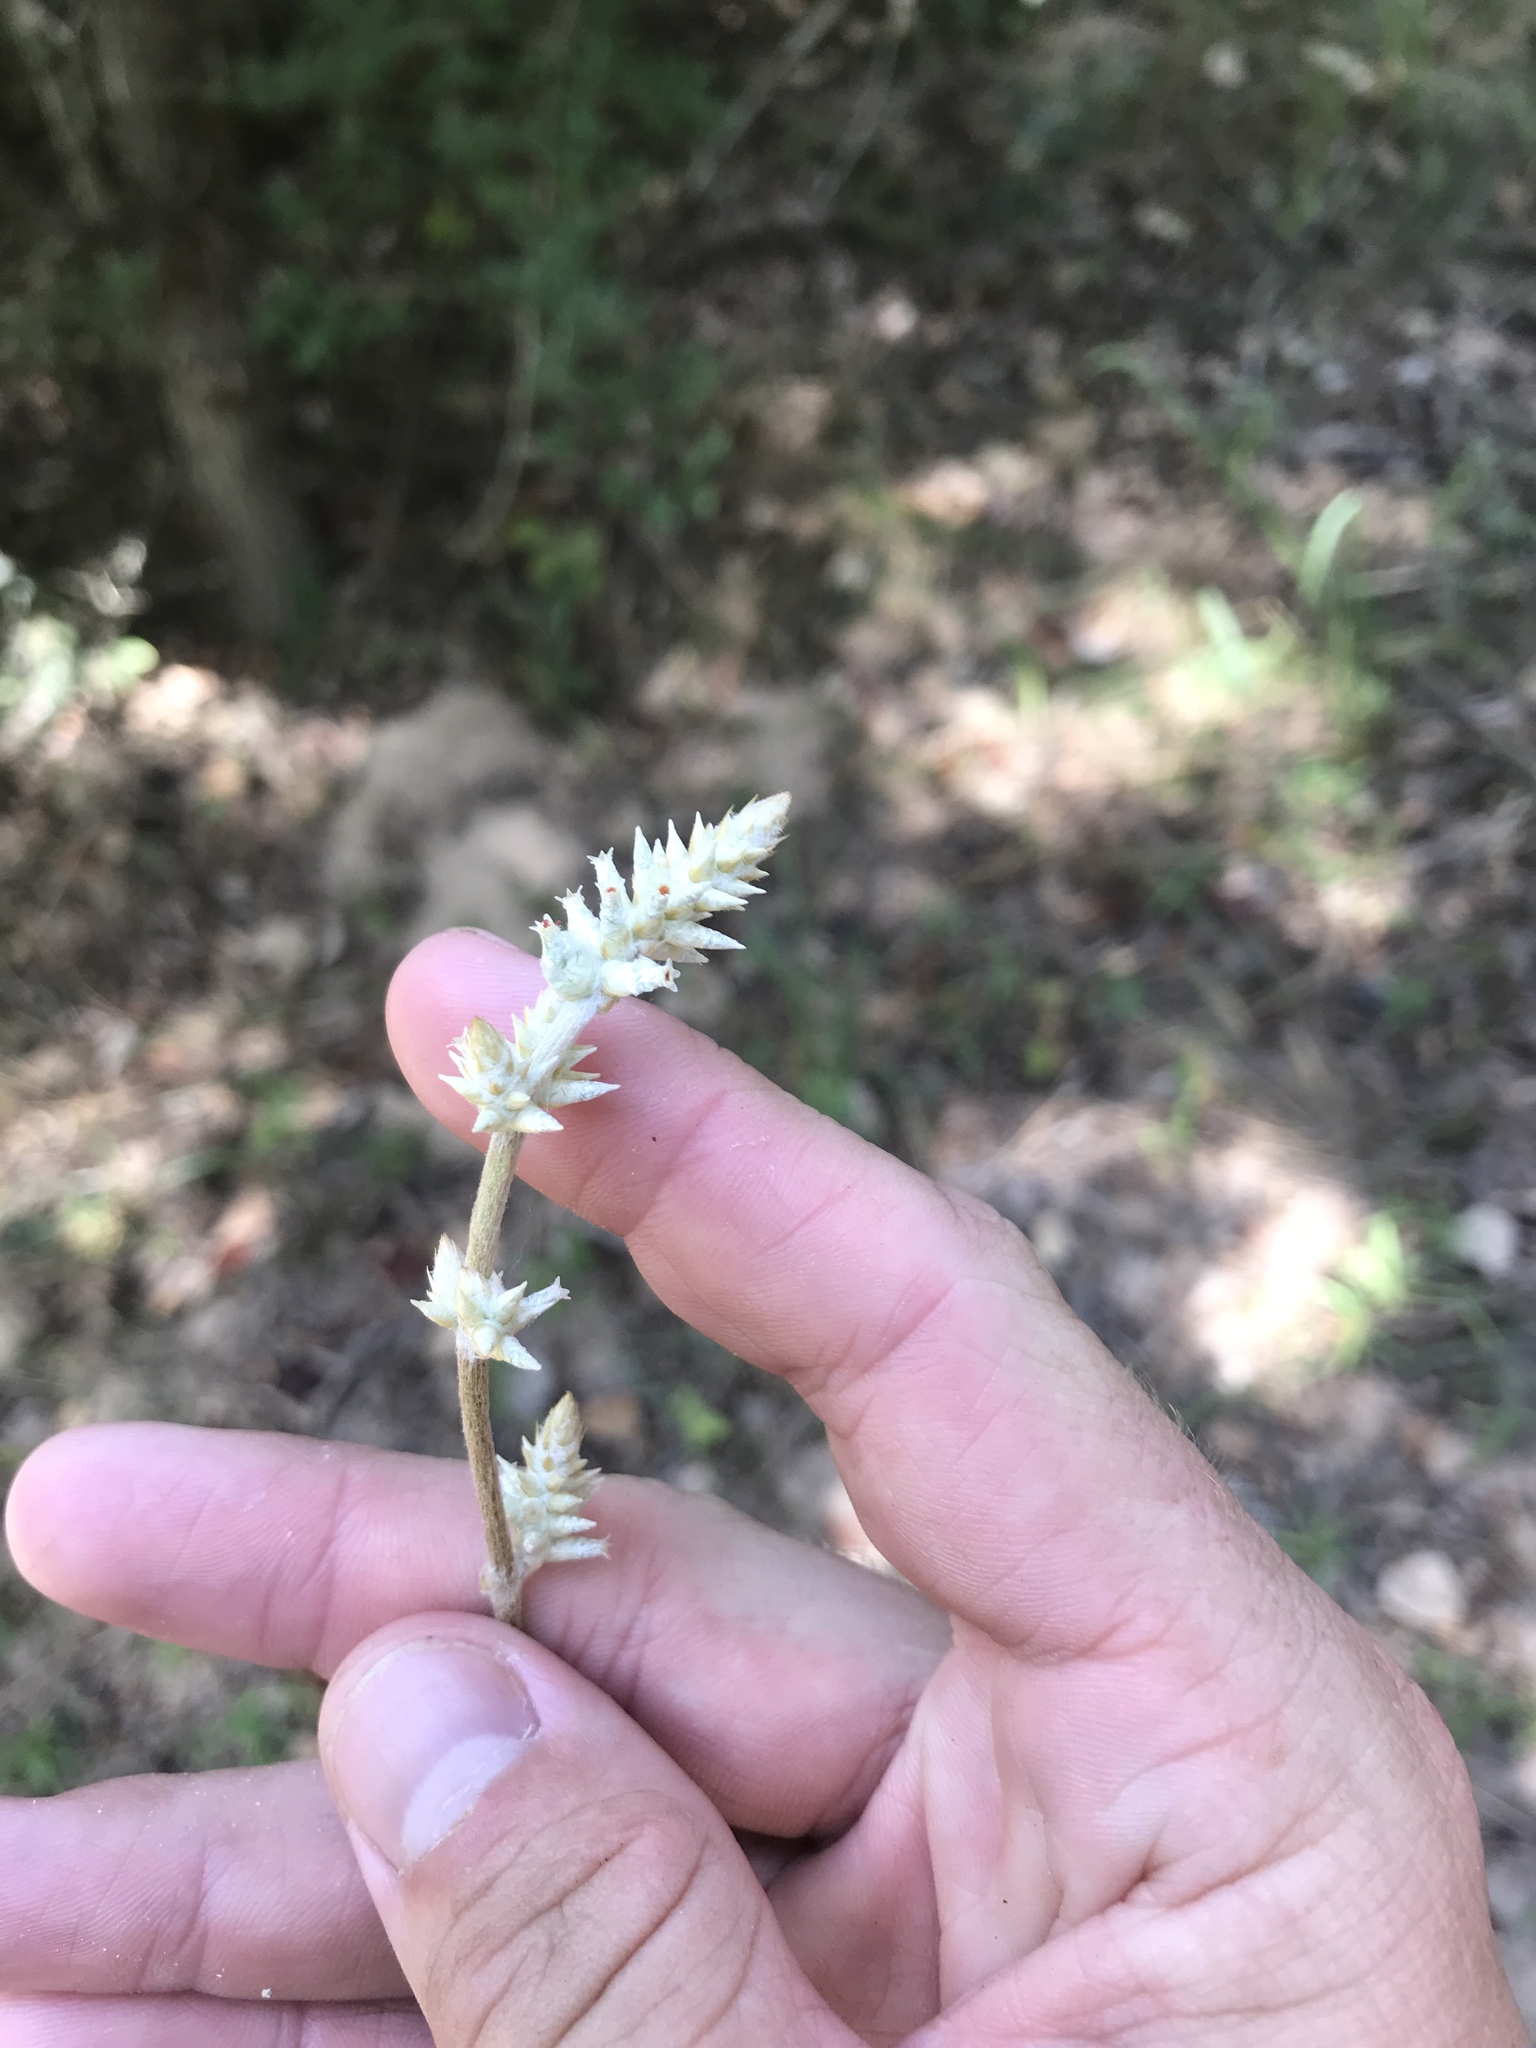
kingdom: Plantae
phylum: Tracheophyta
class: Magnoliopsida
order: Caryophyllales
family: Amaranthaceae
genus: Froelichia
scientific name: Froelichia floridana
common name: Florida snake-cotton
